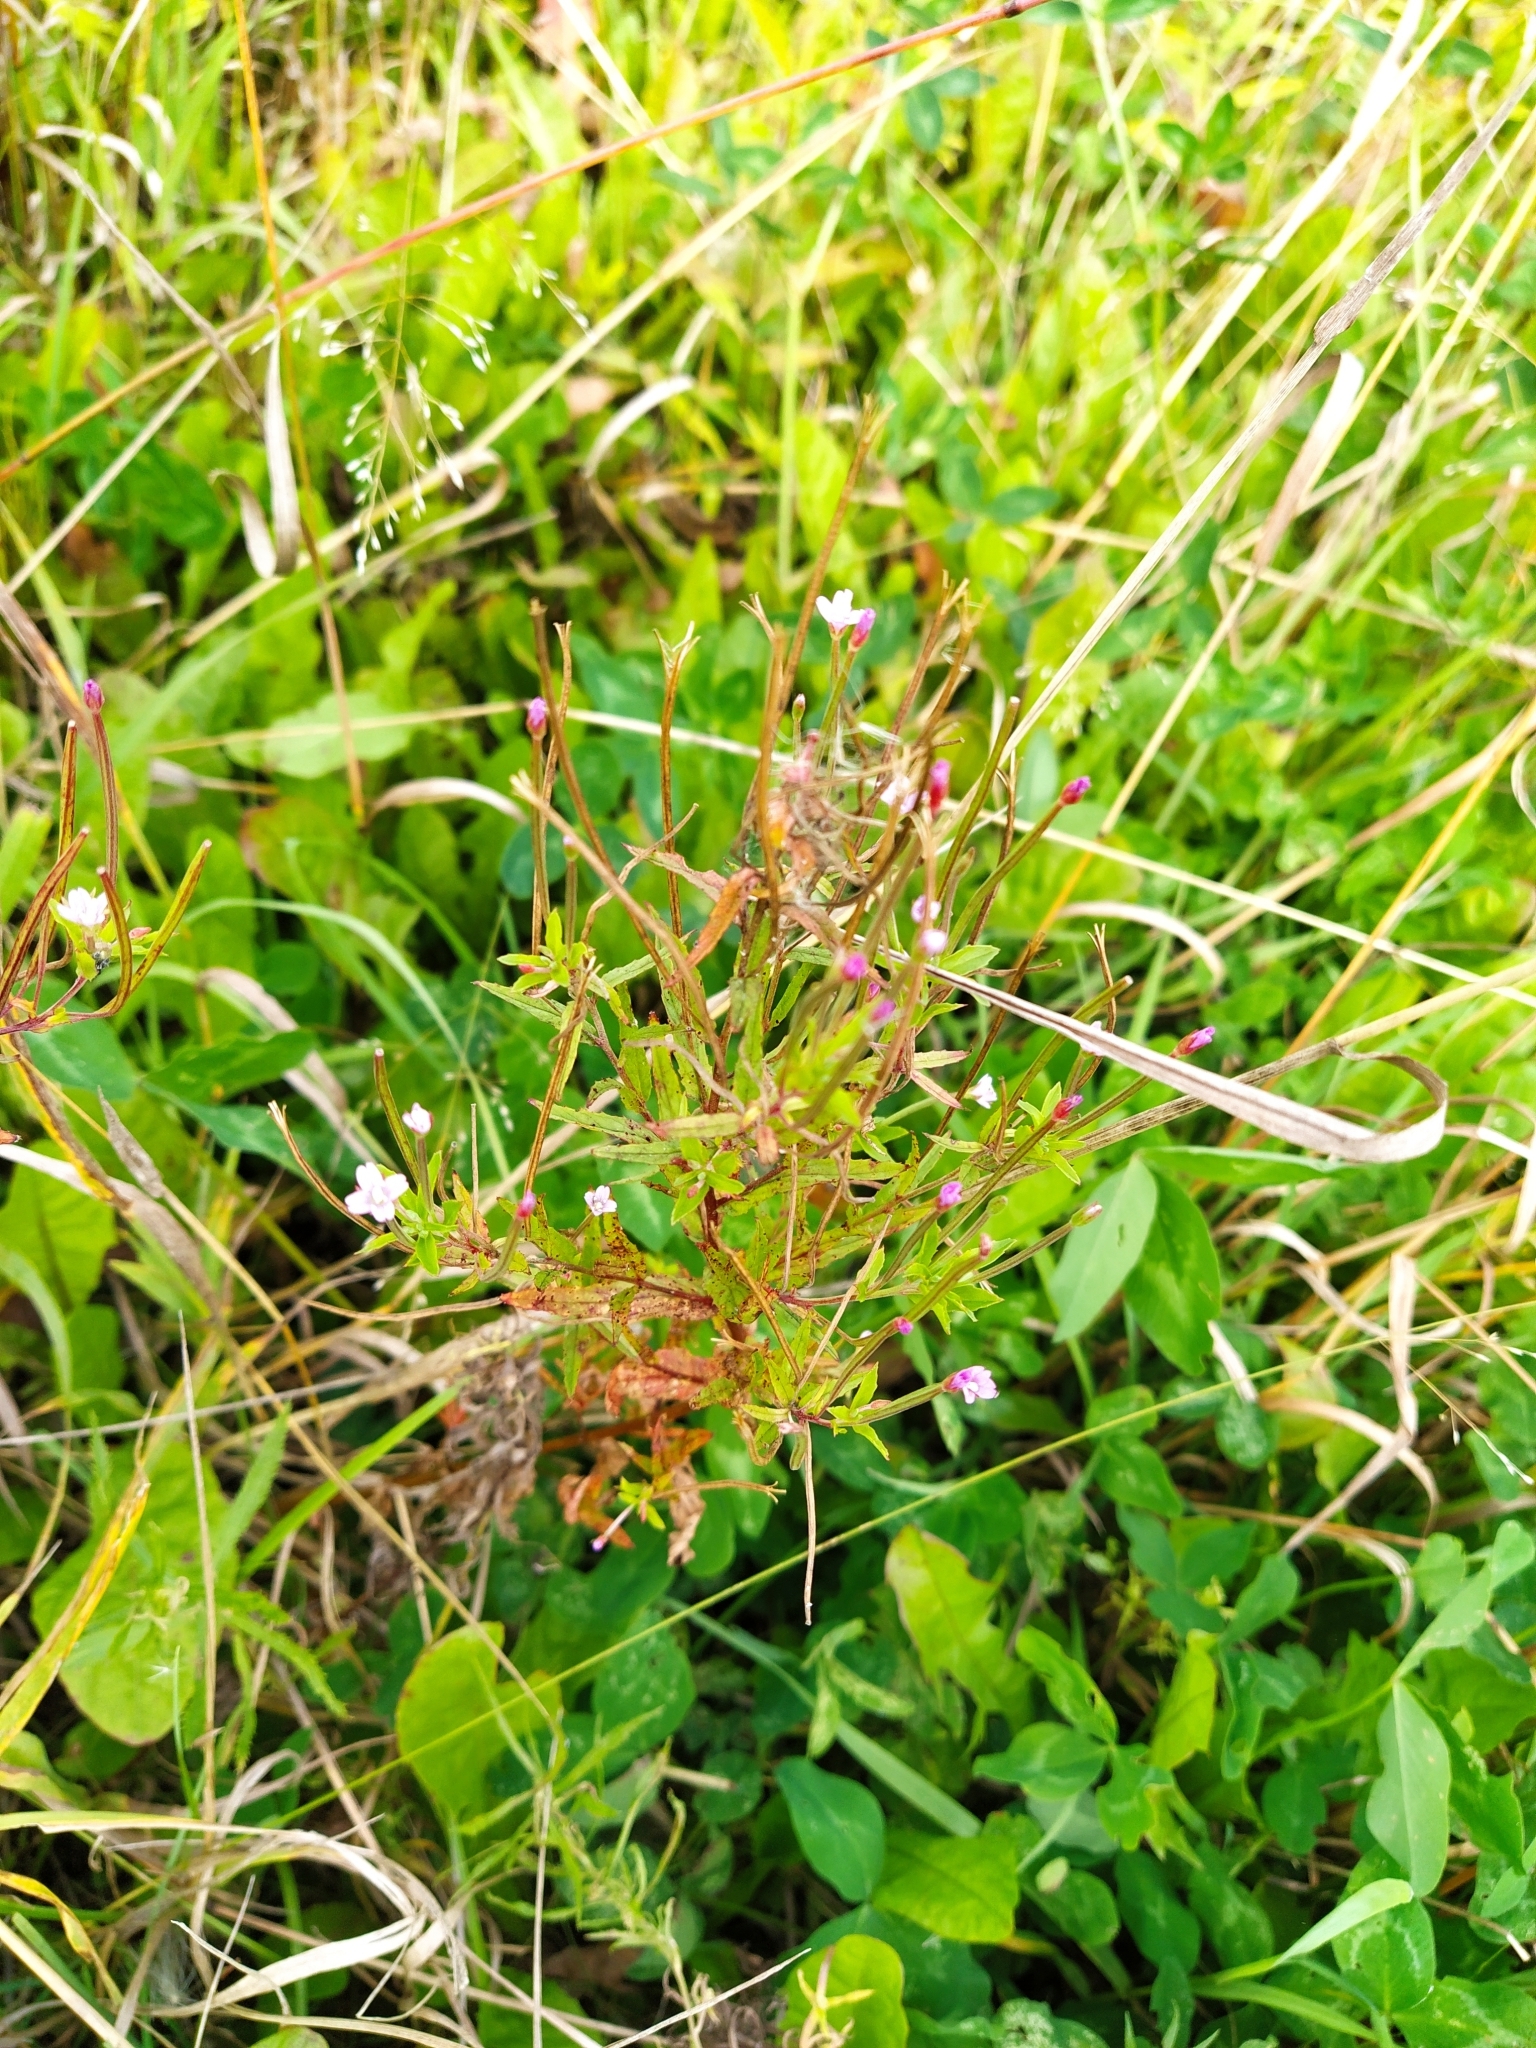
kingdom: Plantae
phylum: Tracheophyta
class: Magnoliopsida
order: Myrtales
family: Onagraceae
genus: Epilobium
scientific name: Epilobium ciliatum
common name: American willowherb
